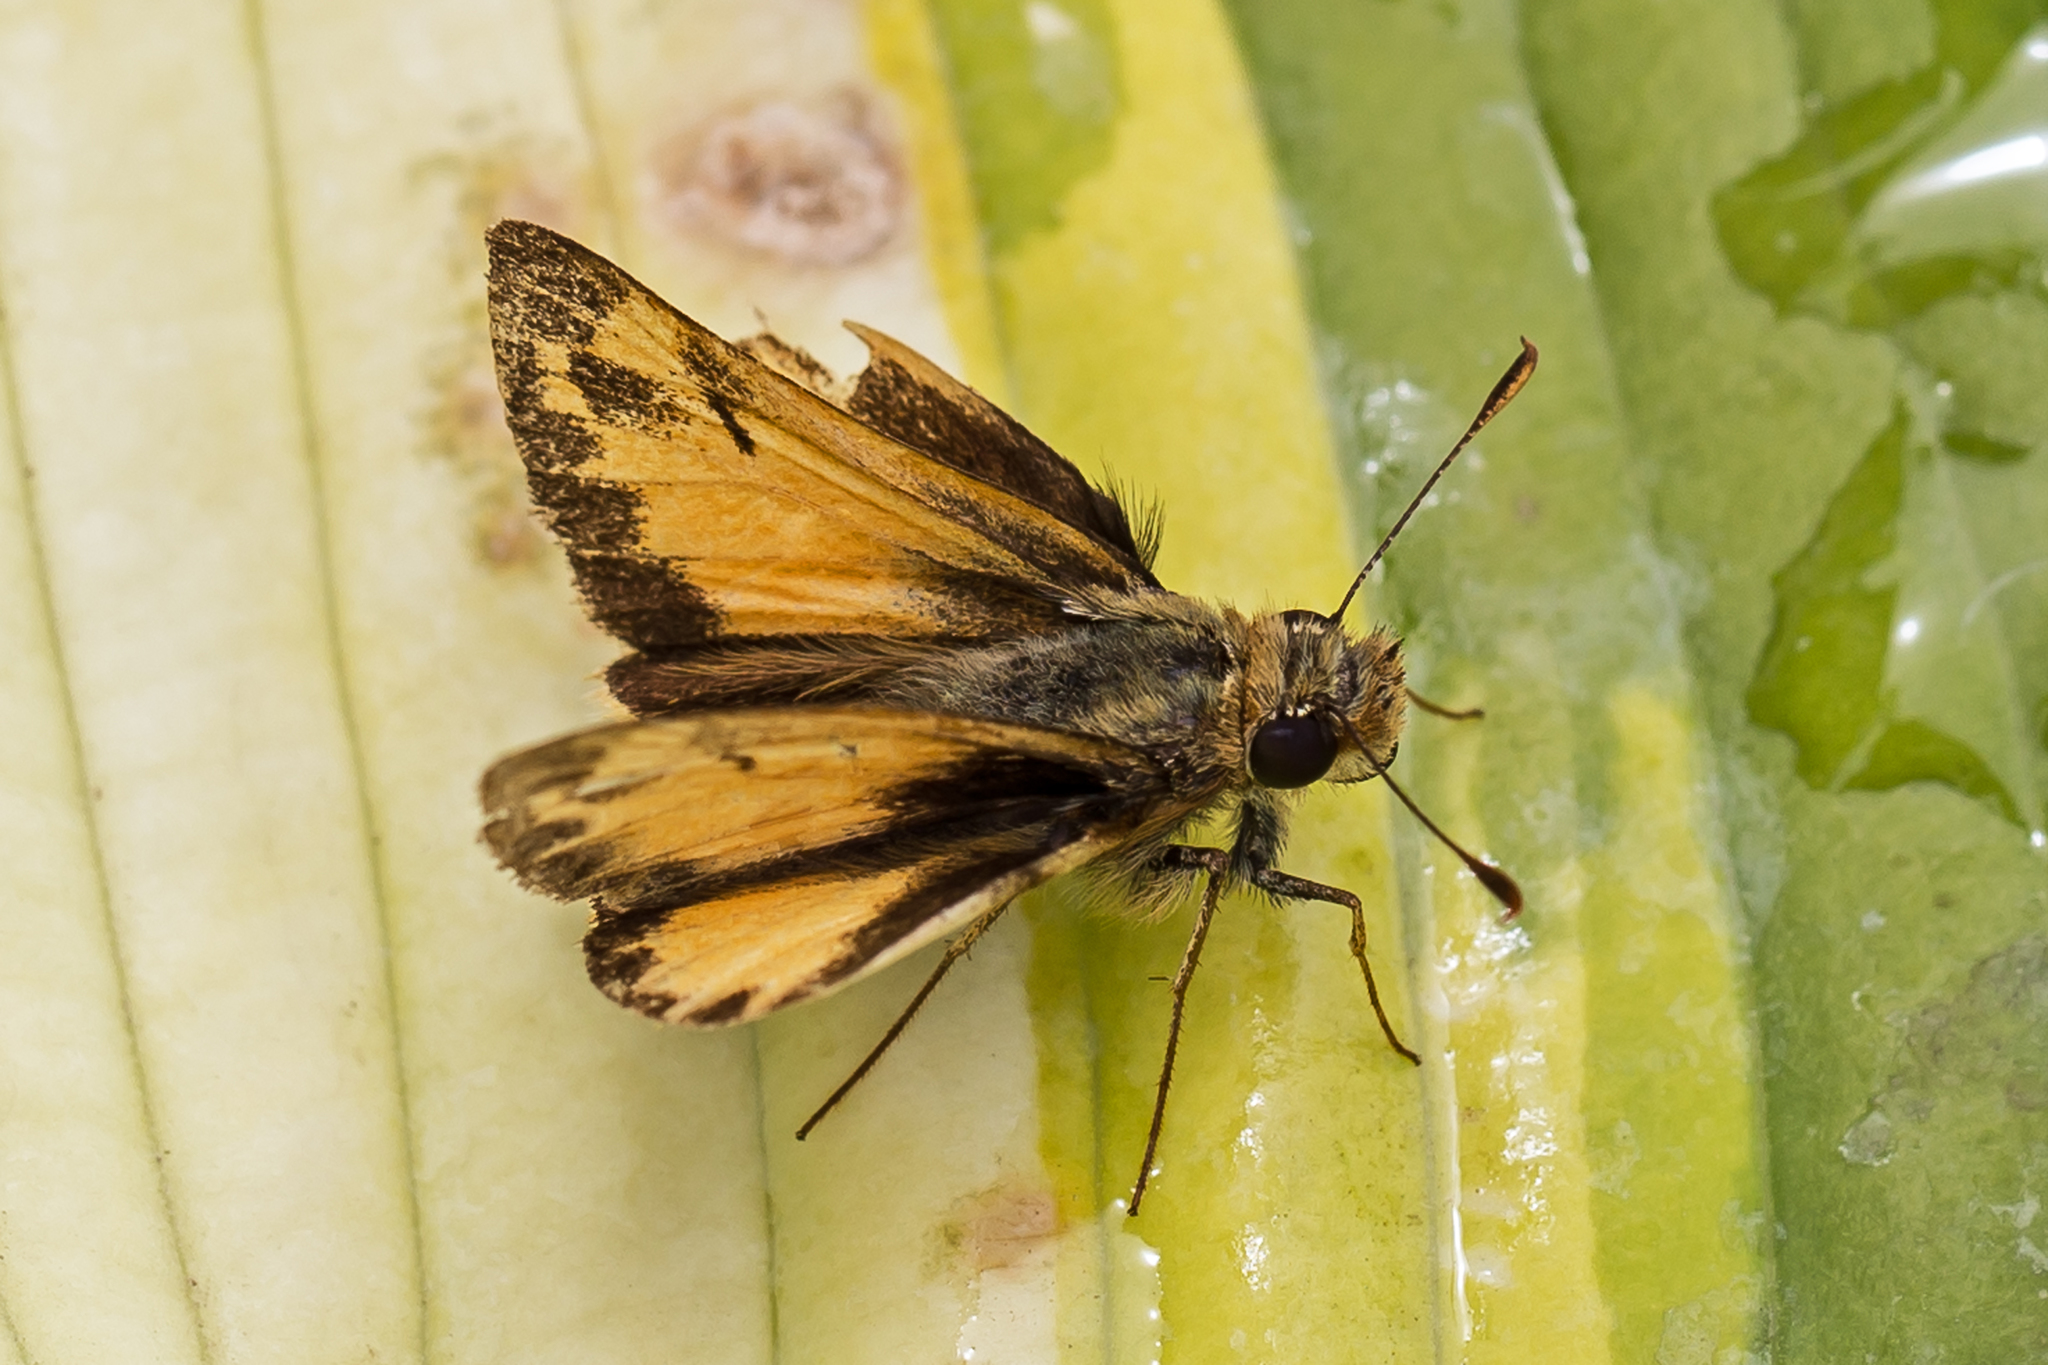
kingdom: Animalia
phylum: Arthropoda
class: Insecta
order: Lepidoptera
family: Hesperiidae
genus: Lon
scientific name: Lon zabulon
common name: Zabulon skipper
